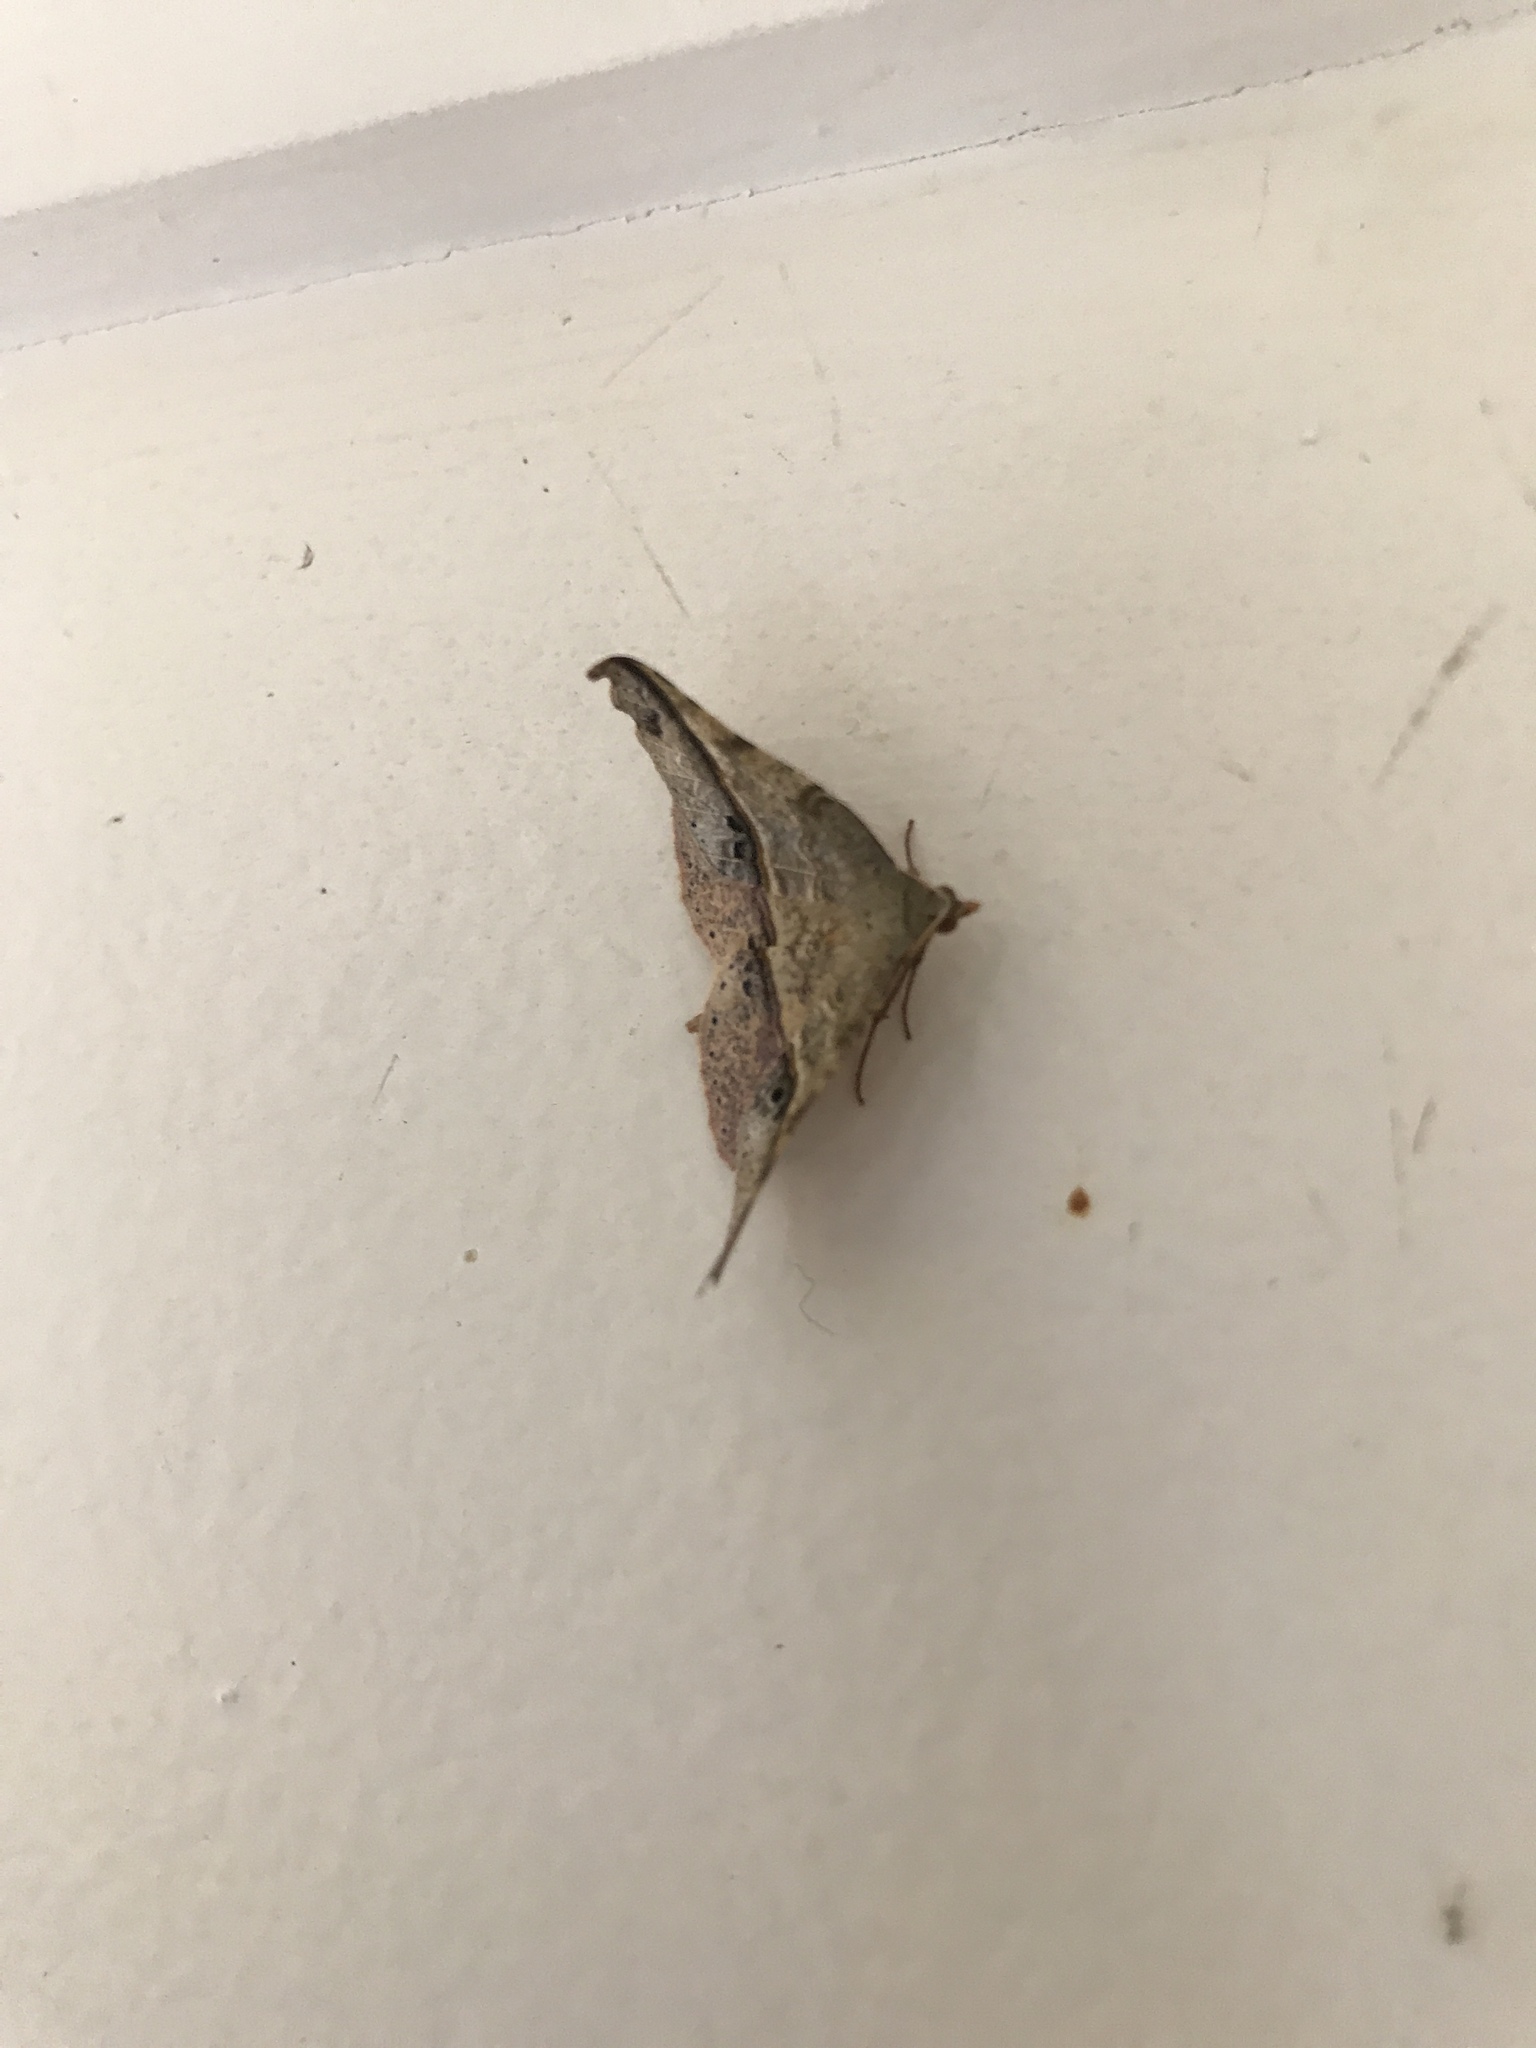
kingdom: Animalia
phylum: Arthropoda
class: Insecta
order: Lepidoptera
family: Geometridae
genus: Sarisa
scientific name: Sarisa muriferata
